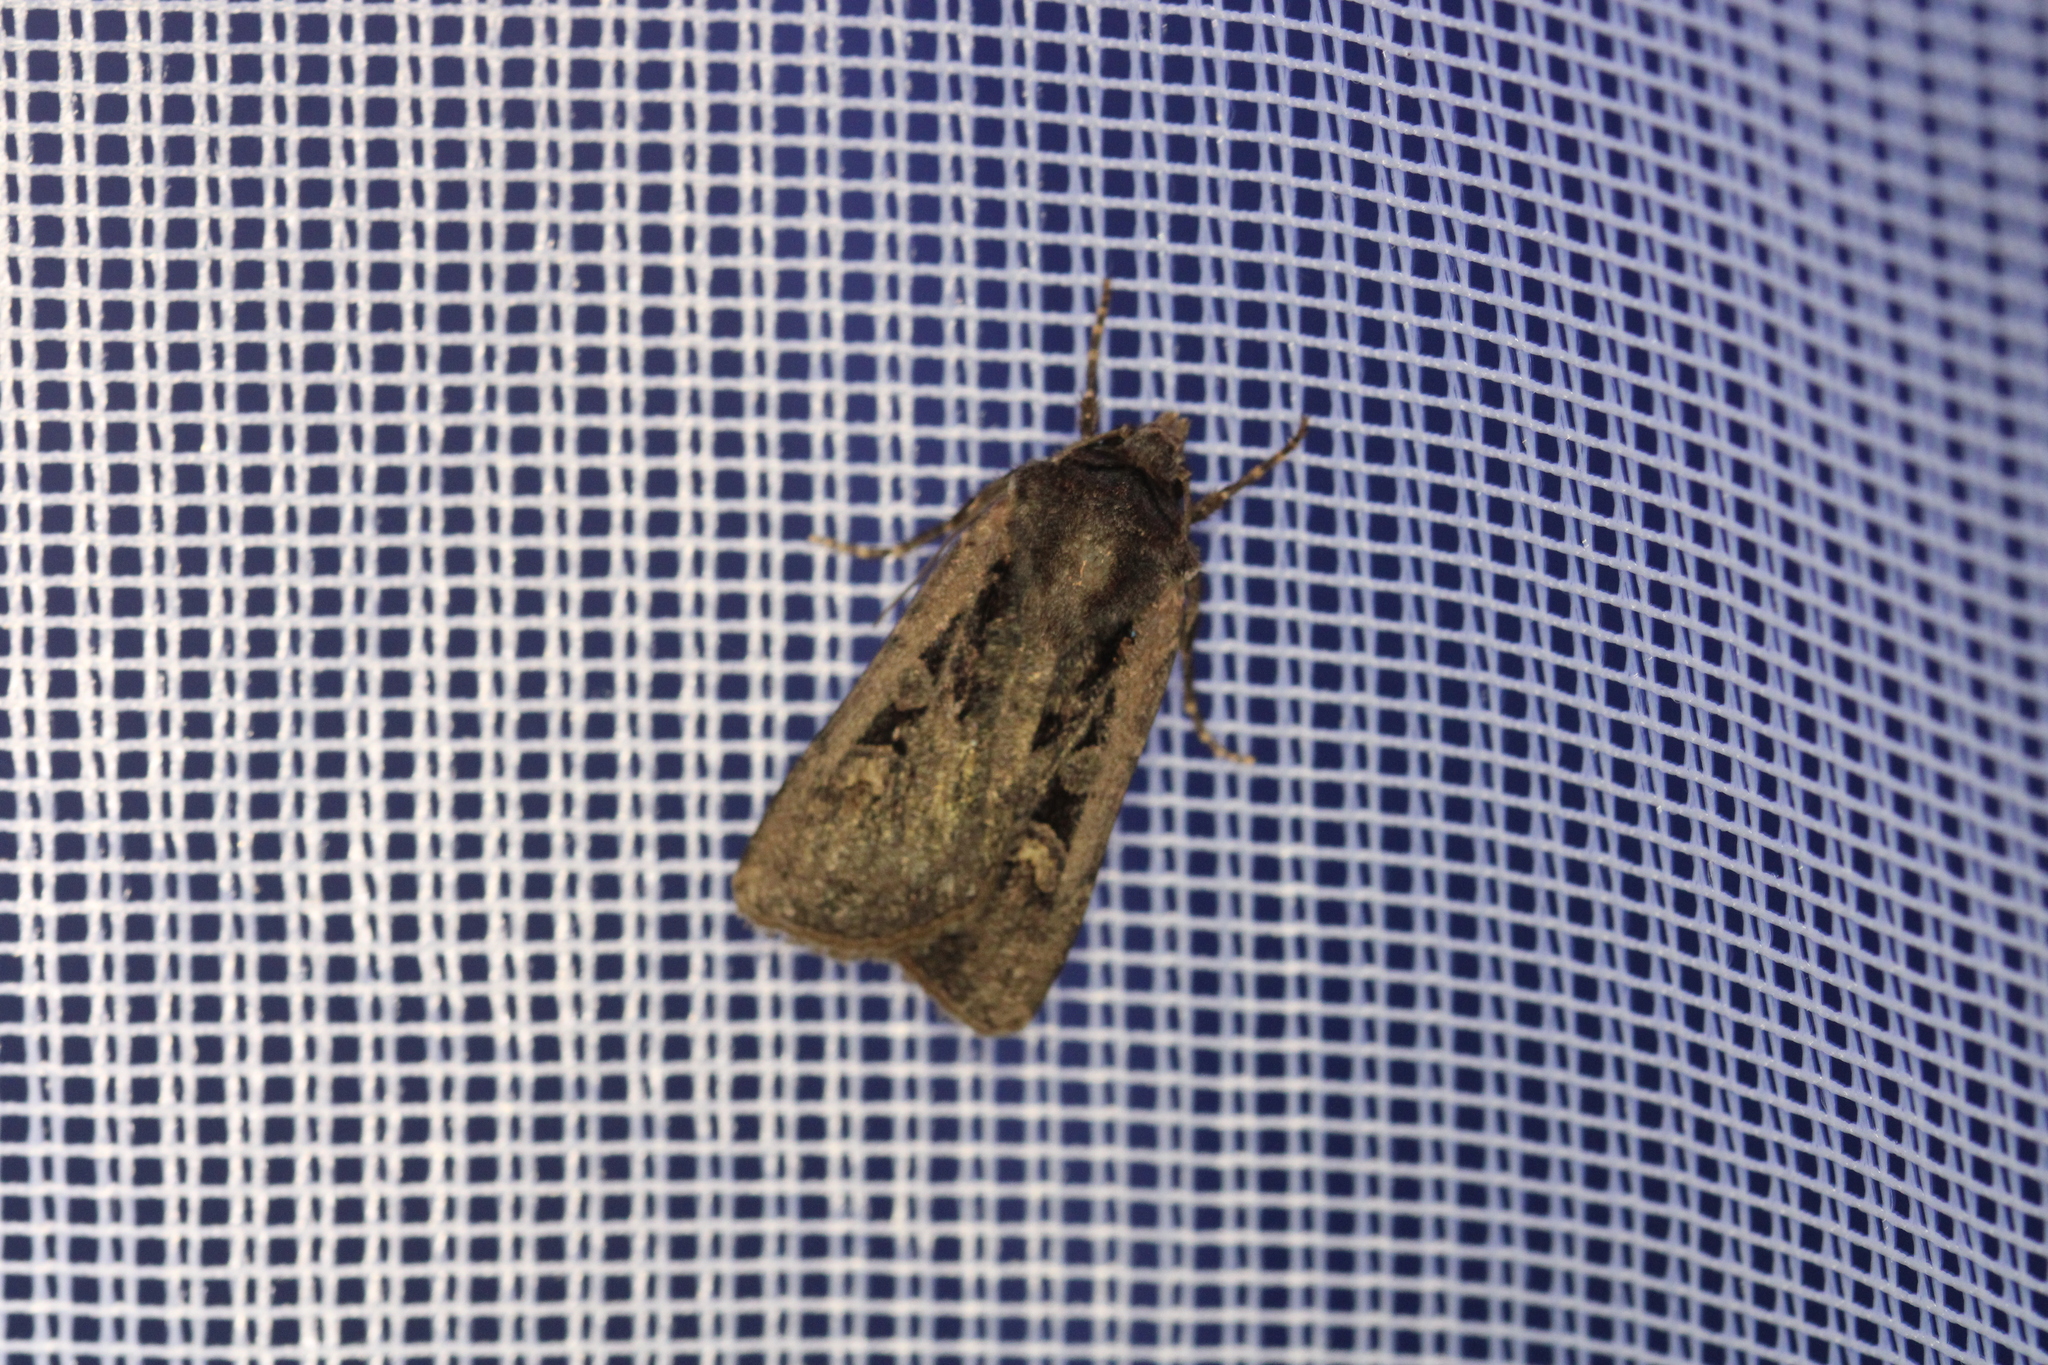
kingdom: Animalia
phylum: Arthropoda
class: Insecta
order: Lepidoptera
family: Noctuidae
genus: Euxoa
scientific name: Euxoa temera
